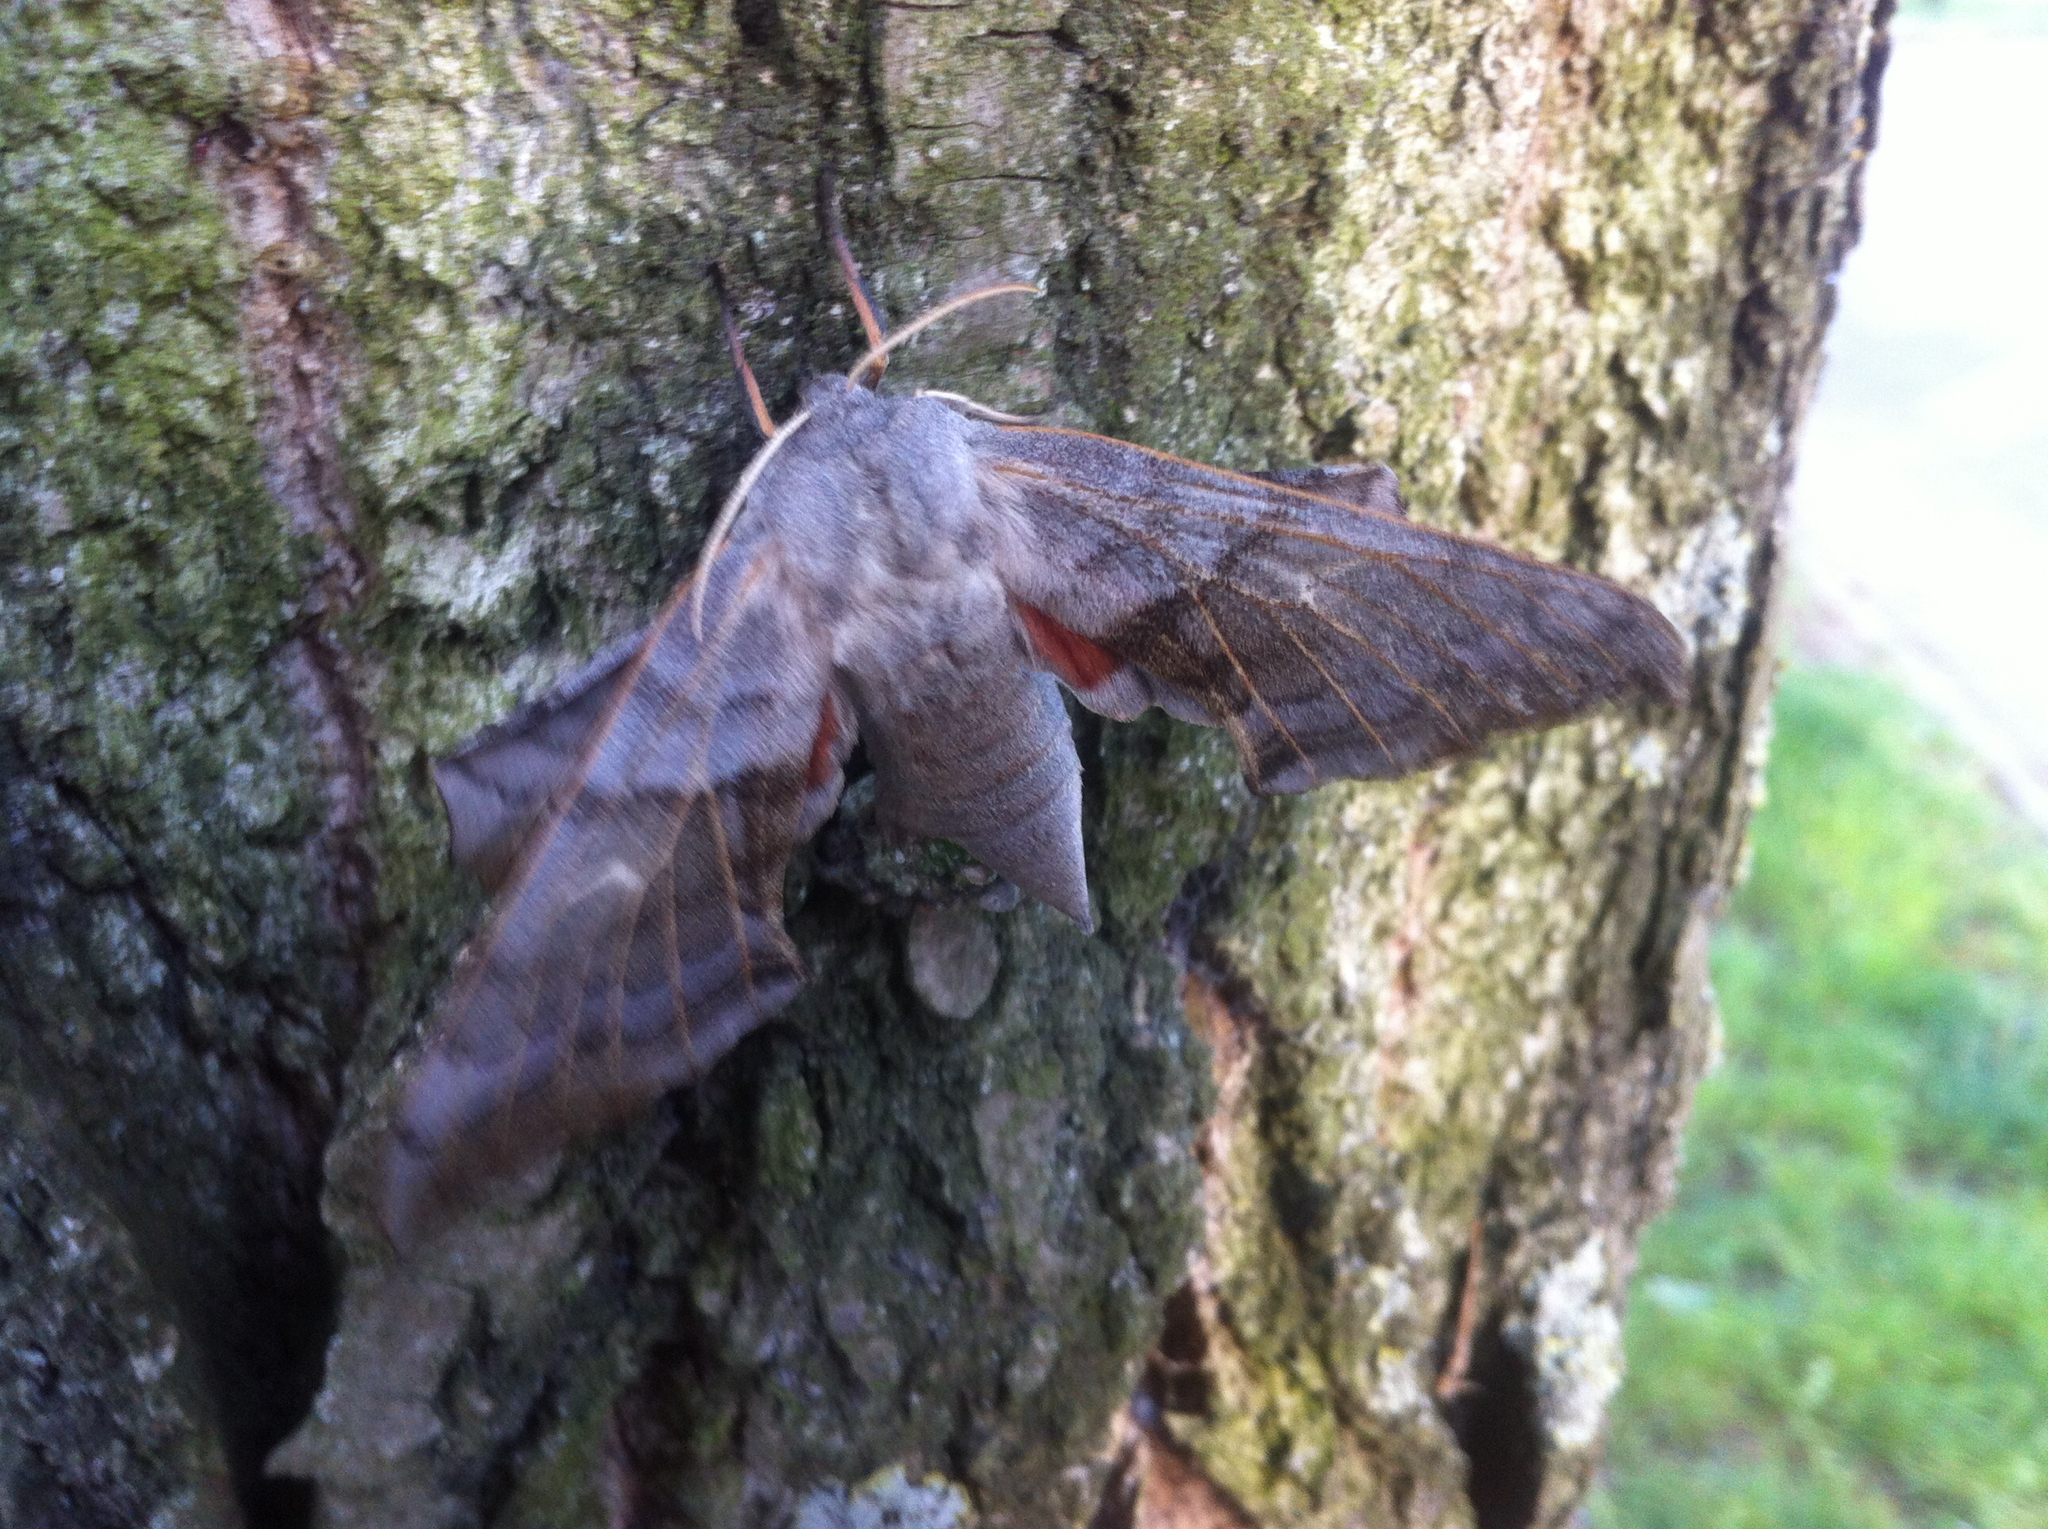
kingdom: Animalia
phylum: Arthropoda
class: Insecta
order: Lepidoptera
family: Sphingidae
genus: Laothoe
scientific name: Laothoe populi
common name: Poplar hawk-moth
